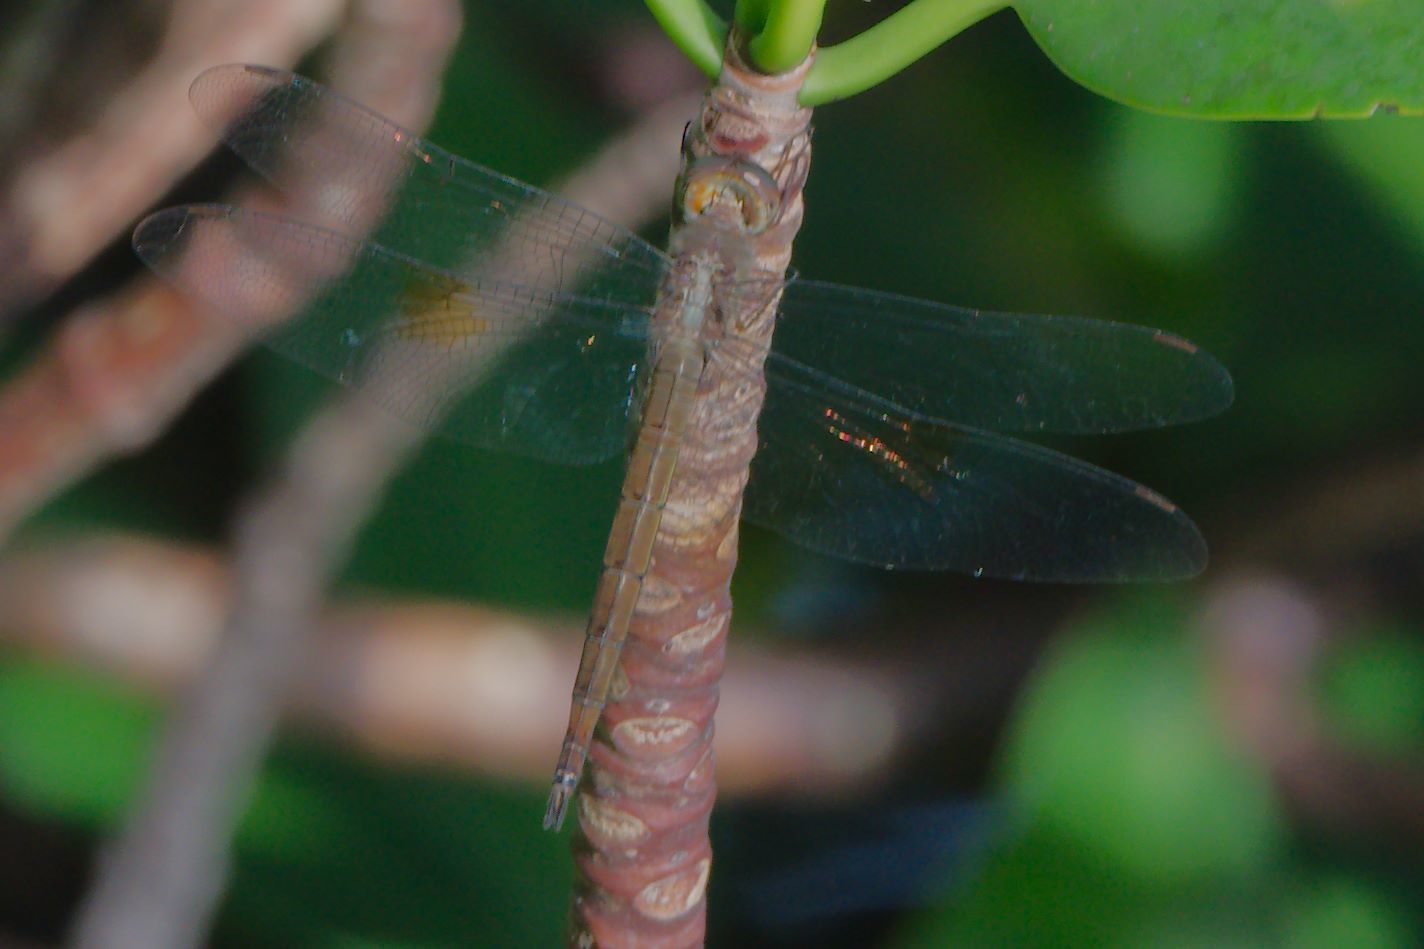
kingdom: Animalia
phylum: Arthropoda
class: Insecta
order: Odonata
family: Libellulidae
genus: Tholymis
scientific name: Tholymis citrina
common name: Evening skimmer
